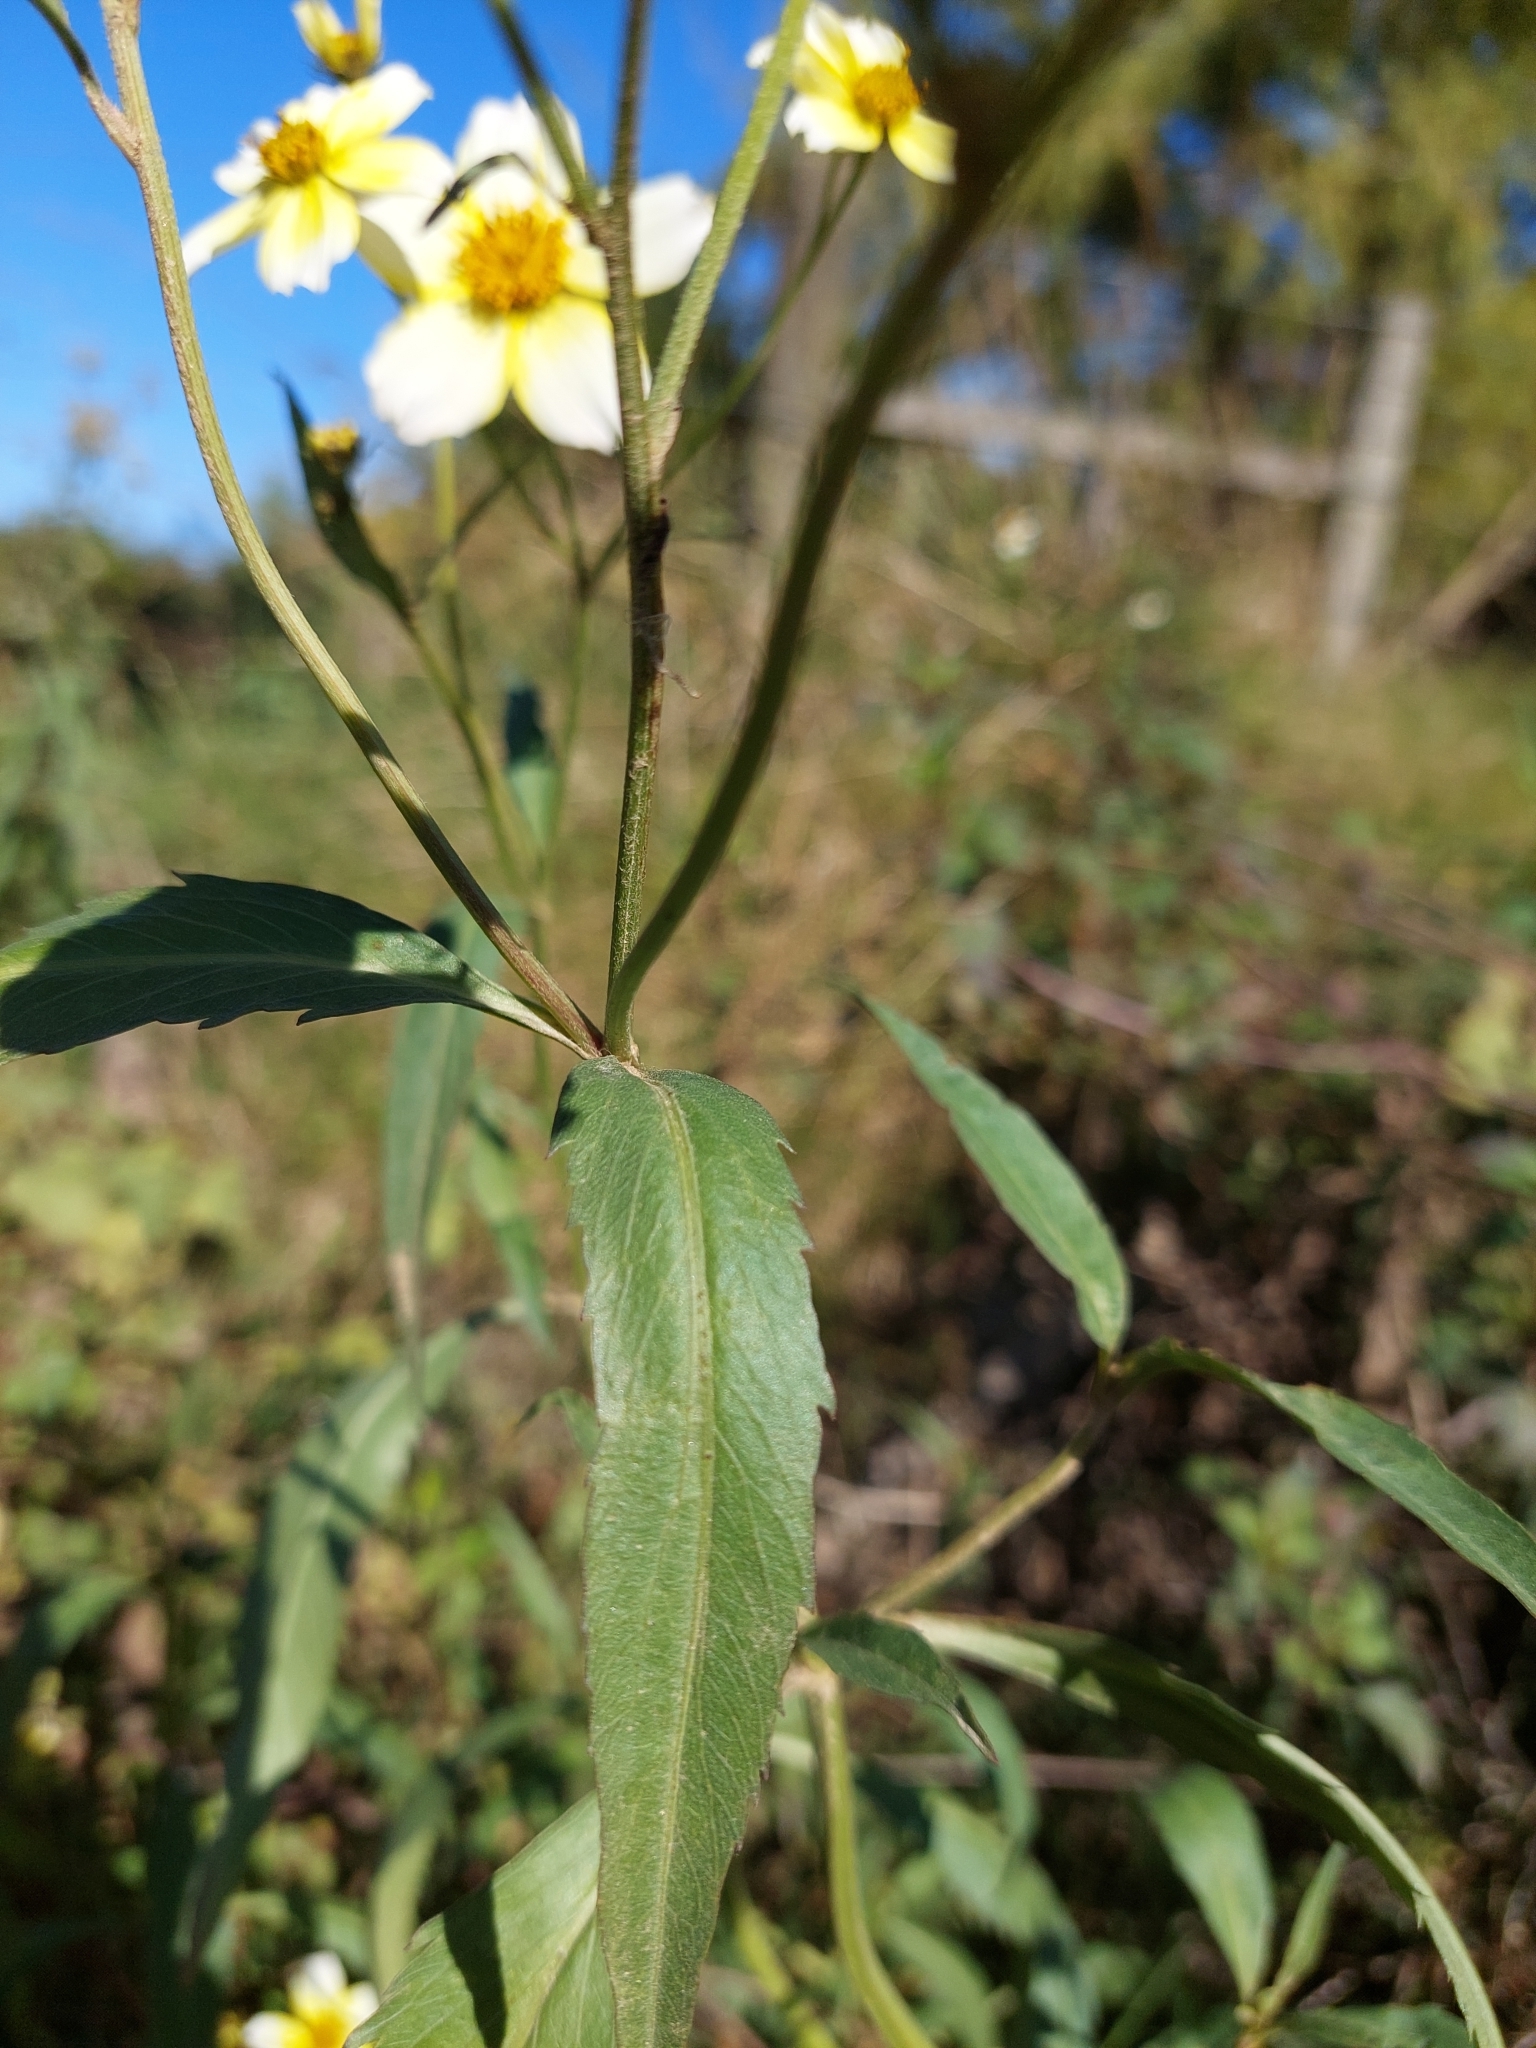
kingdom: Plantae
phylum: Tracheophyta
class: Magnoliopsida
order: Asterales
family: Asteraceae
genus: Bidens
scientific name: Bidens aurea
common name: Arizona beggar-ticks
